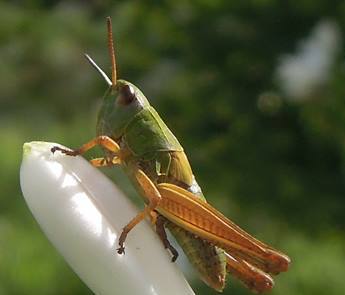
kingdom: Animalia
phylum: Arthropoda
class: Insecta
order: Orthoptera
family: Acrididae
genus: Chorthippus
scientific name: Chorthippus apicalis
